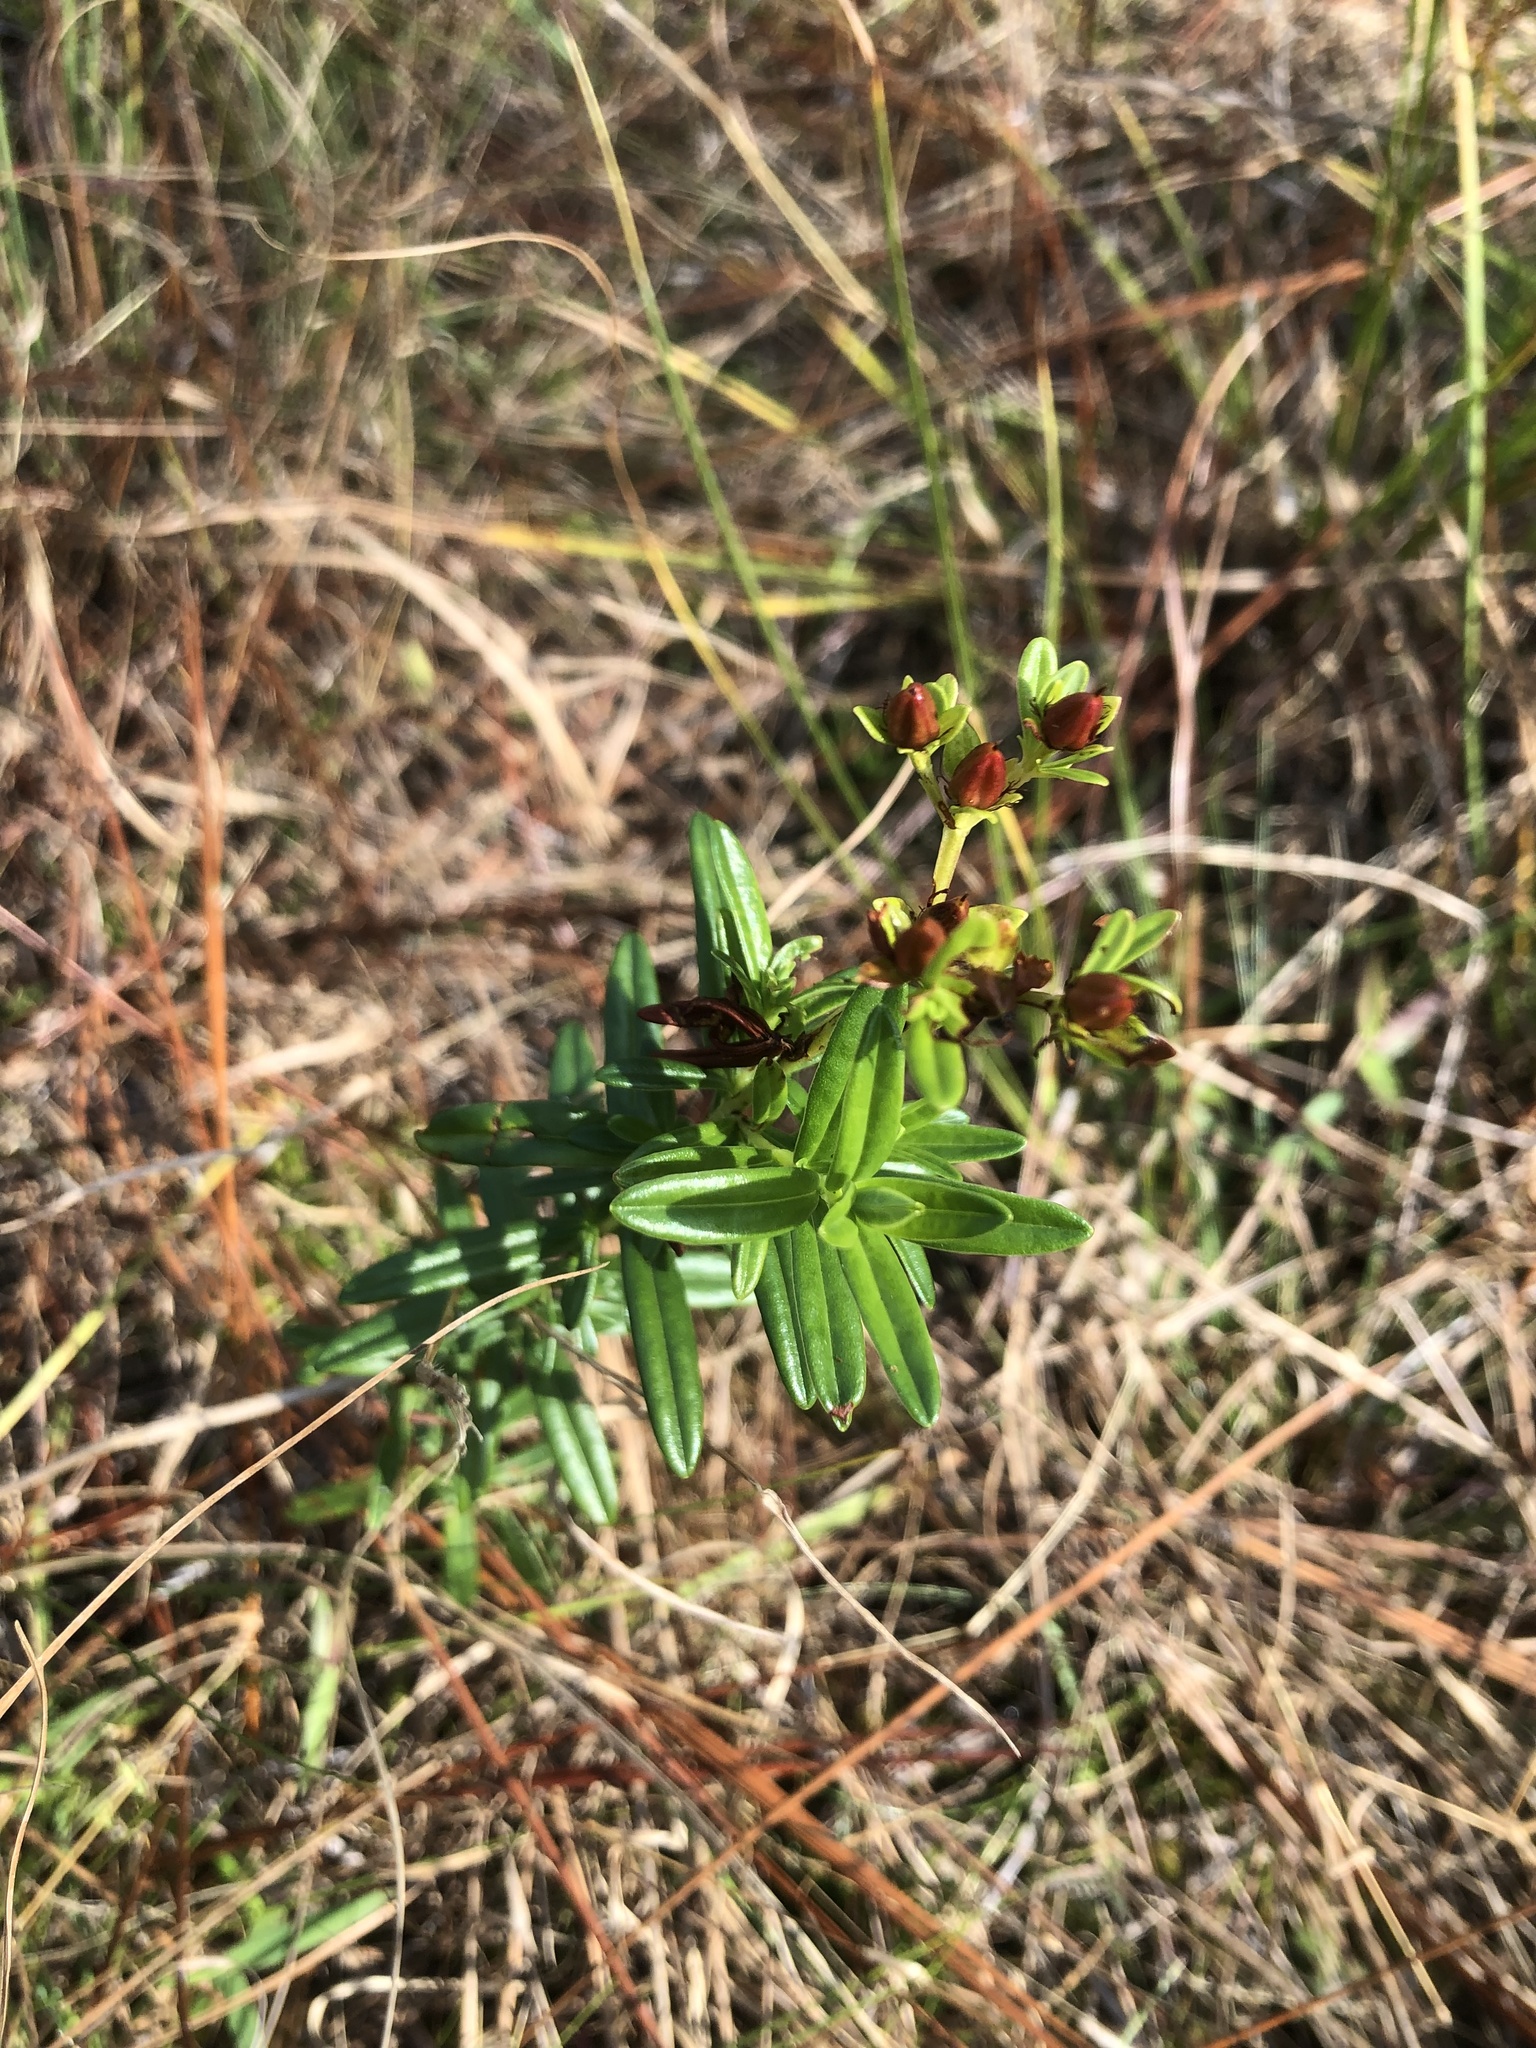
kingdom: Plantae
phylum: Tracheophyta
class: Magnoliopsida
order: Malpighiales
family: Hypericaceae
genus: Hypericum
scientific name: Hypericum cistifolium
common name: Round-pod st. john's-wort
